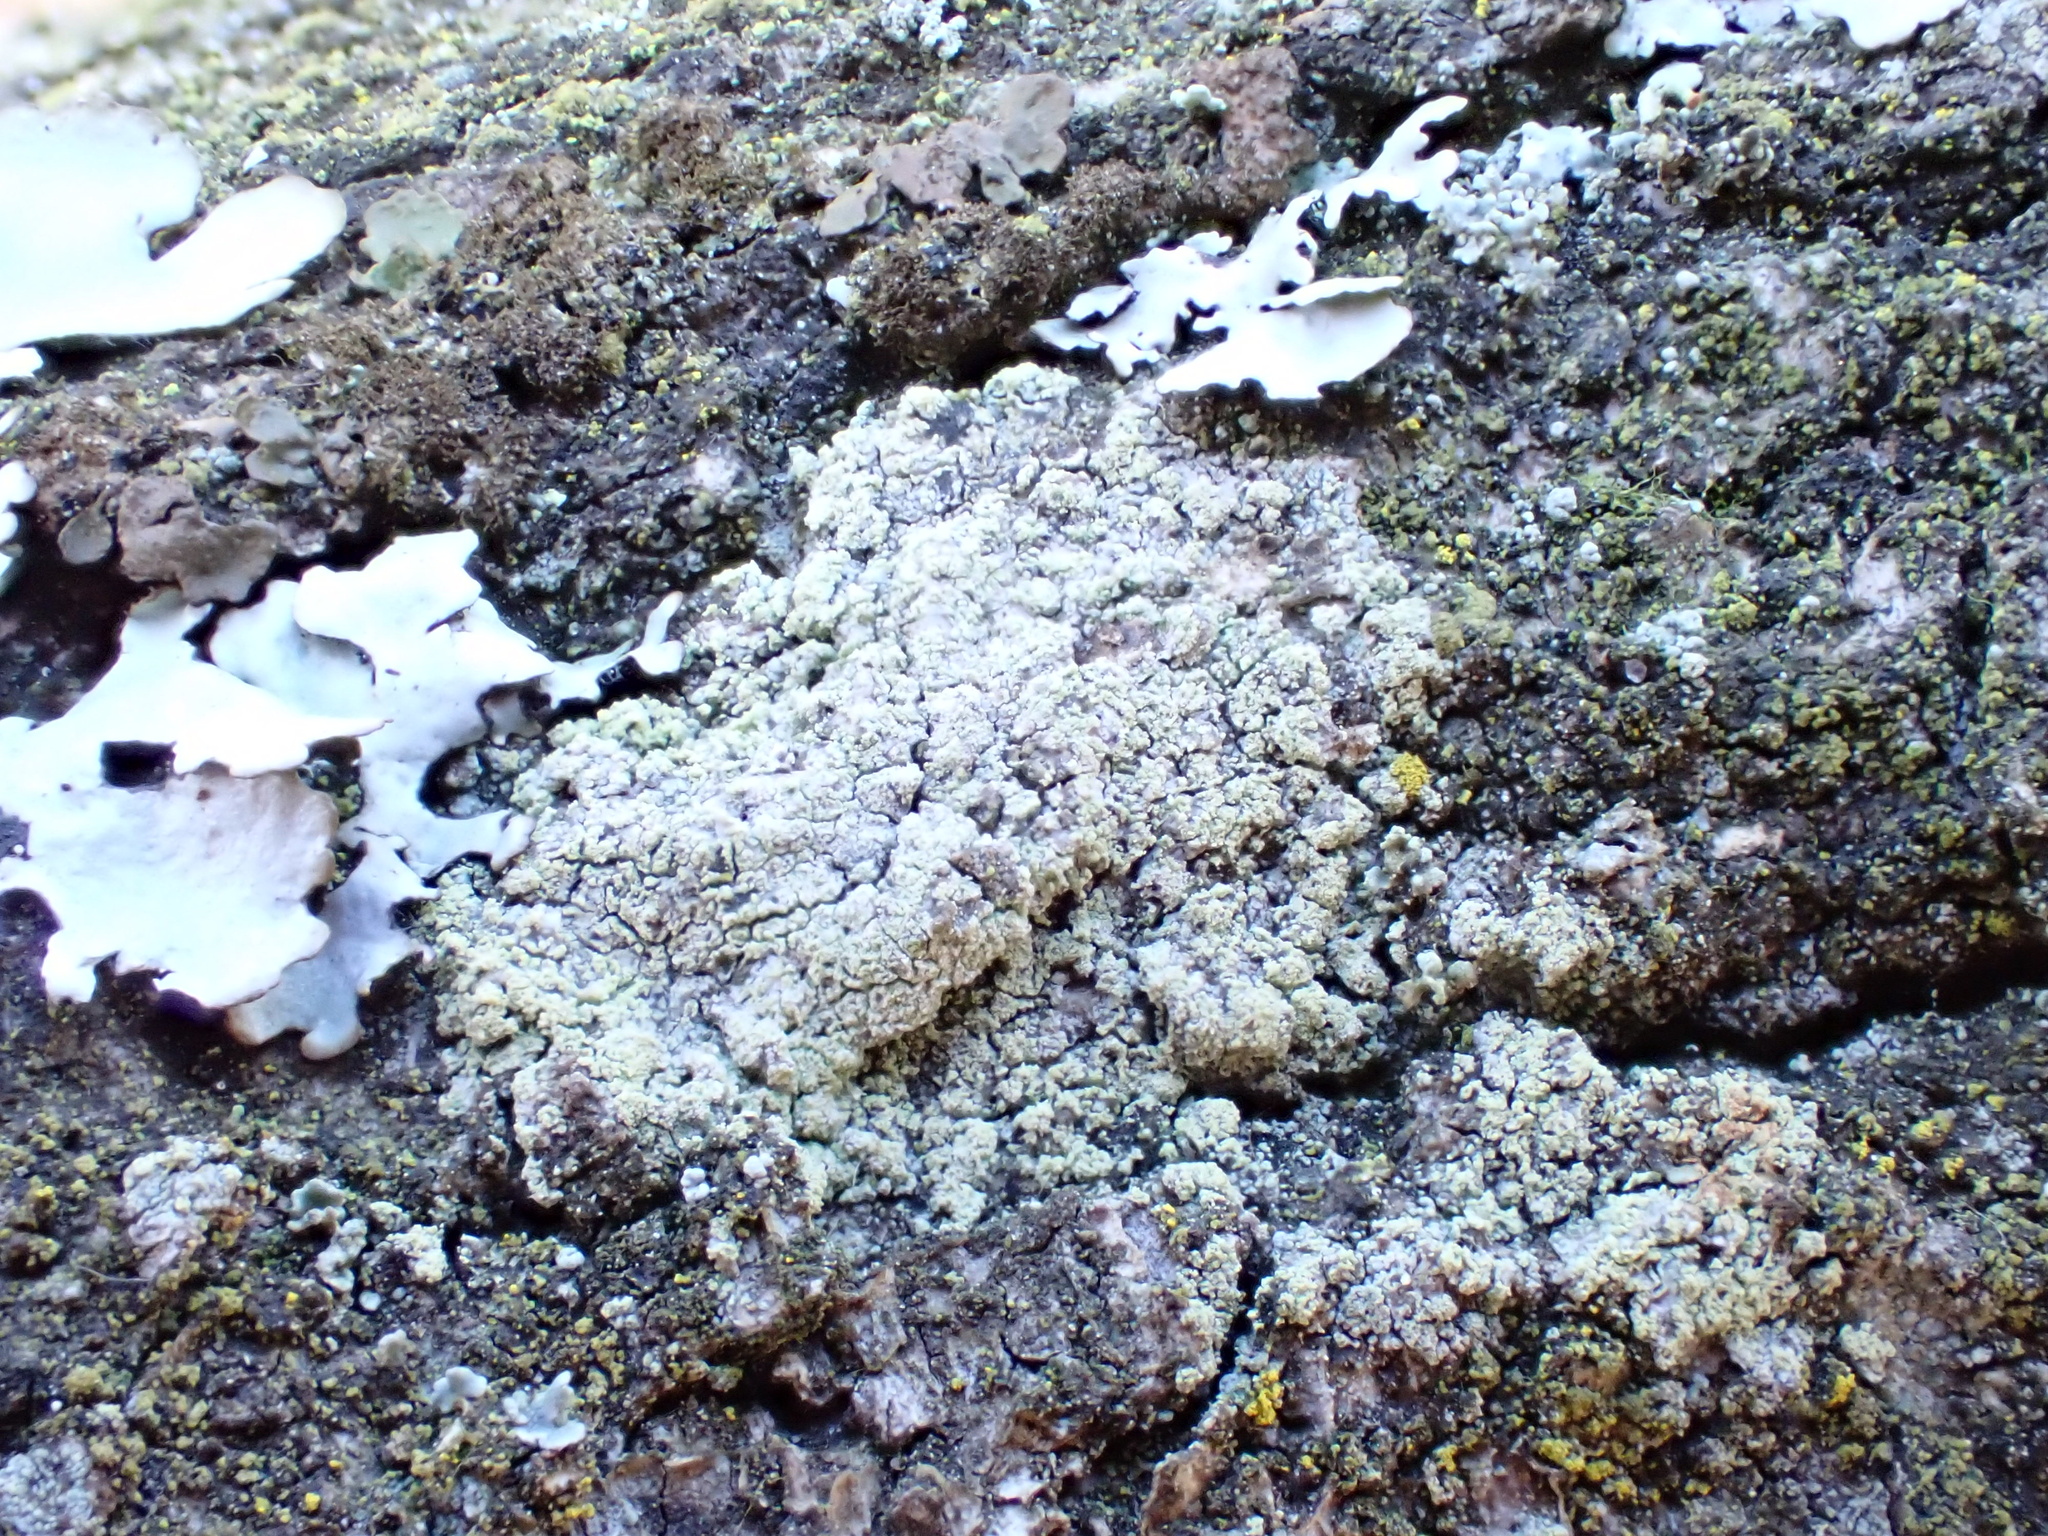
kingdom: Fungi
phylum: Ascomycota
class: Lecanoromycetes
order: Lecanorales
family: Lecanoraceae
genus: Lecanora
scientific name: Lecanora barkmaniana
